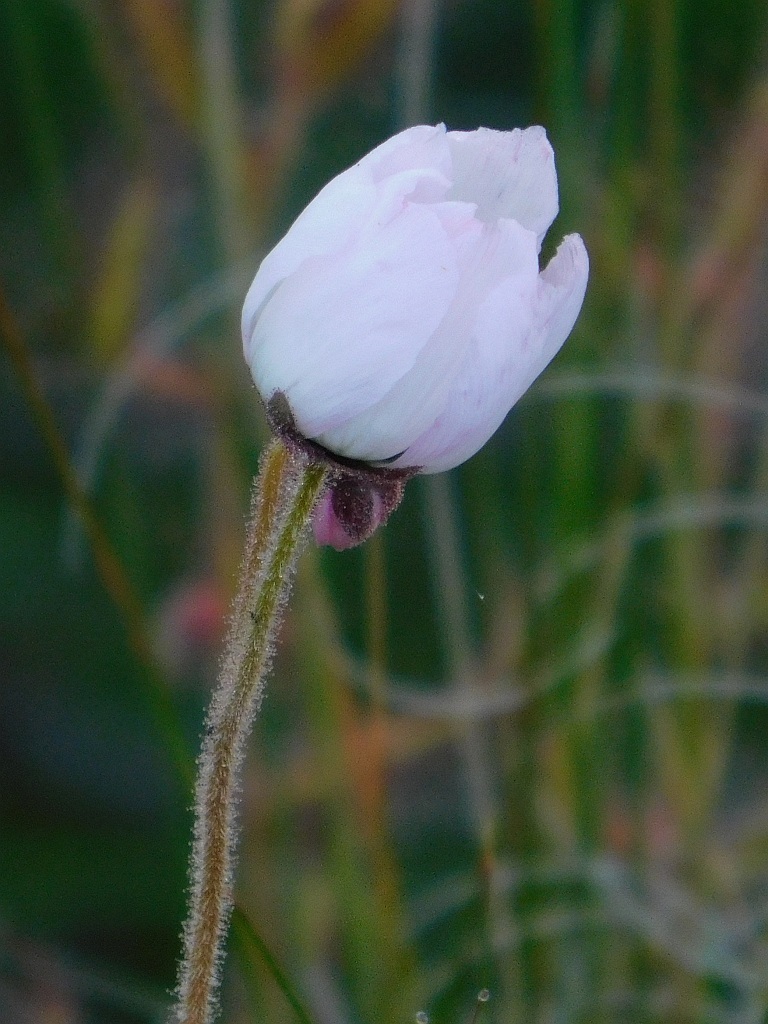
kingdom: Plantae
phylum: Tracheophyta
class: Magnoliopsida
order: Caryophyllales
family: Droseraceae
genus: Drosera
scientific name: Drosera cistiflora
